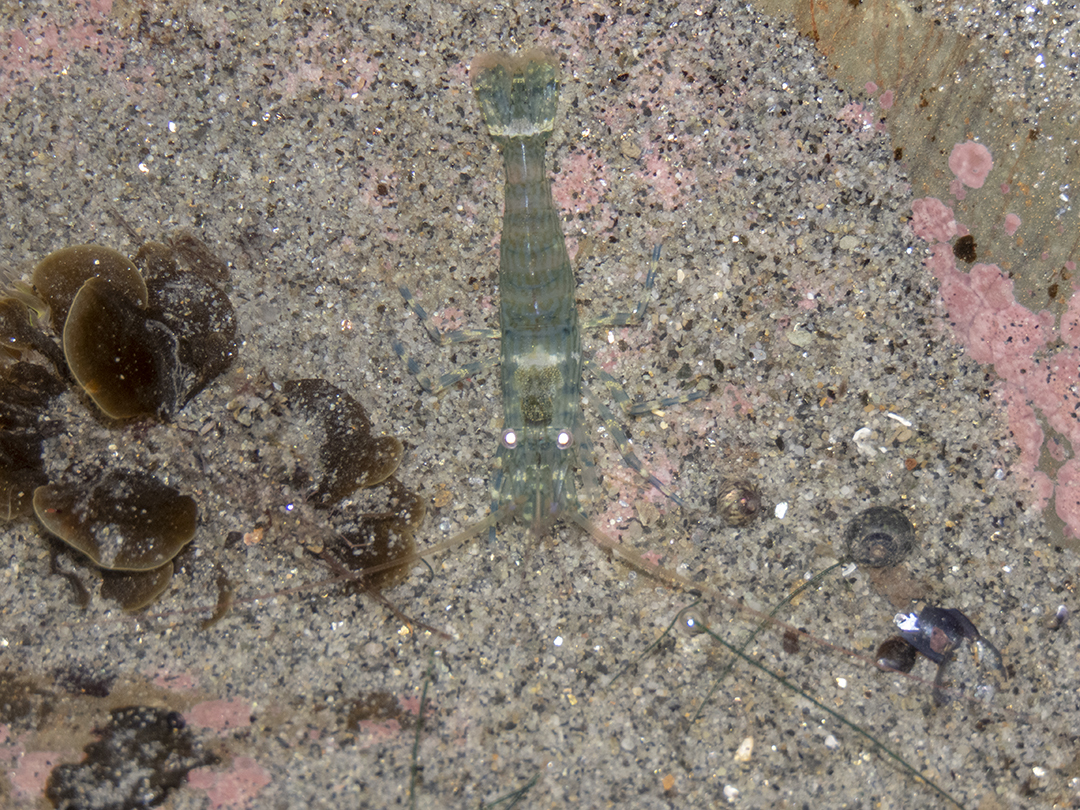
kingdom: Animalia
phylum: Arthropoda
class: Malacostraca
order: Decapoda
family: Hippolytidae
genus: Alope
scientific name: Alope spinifrons
